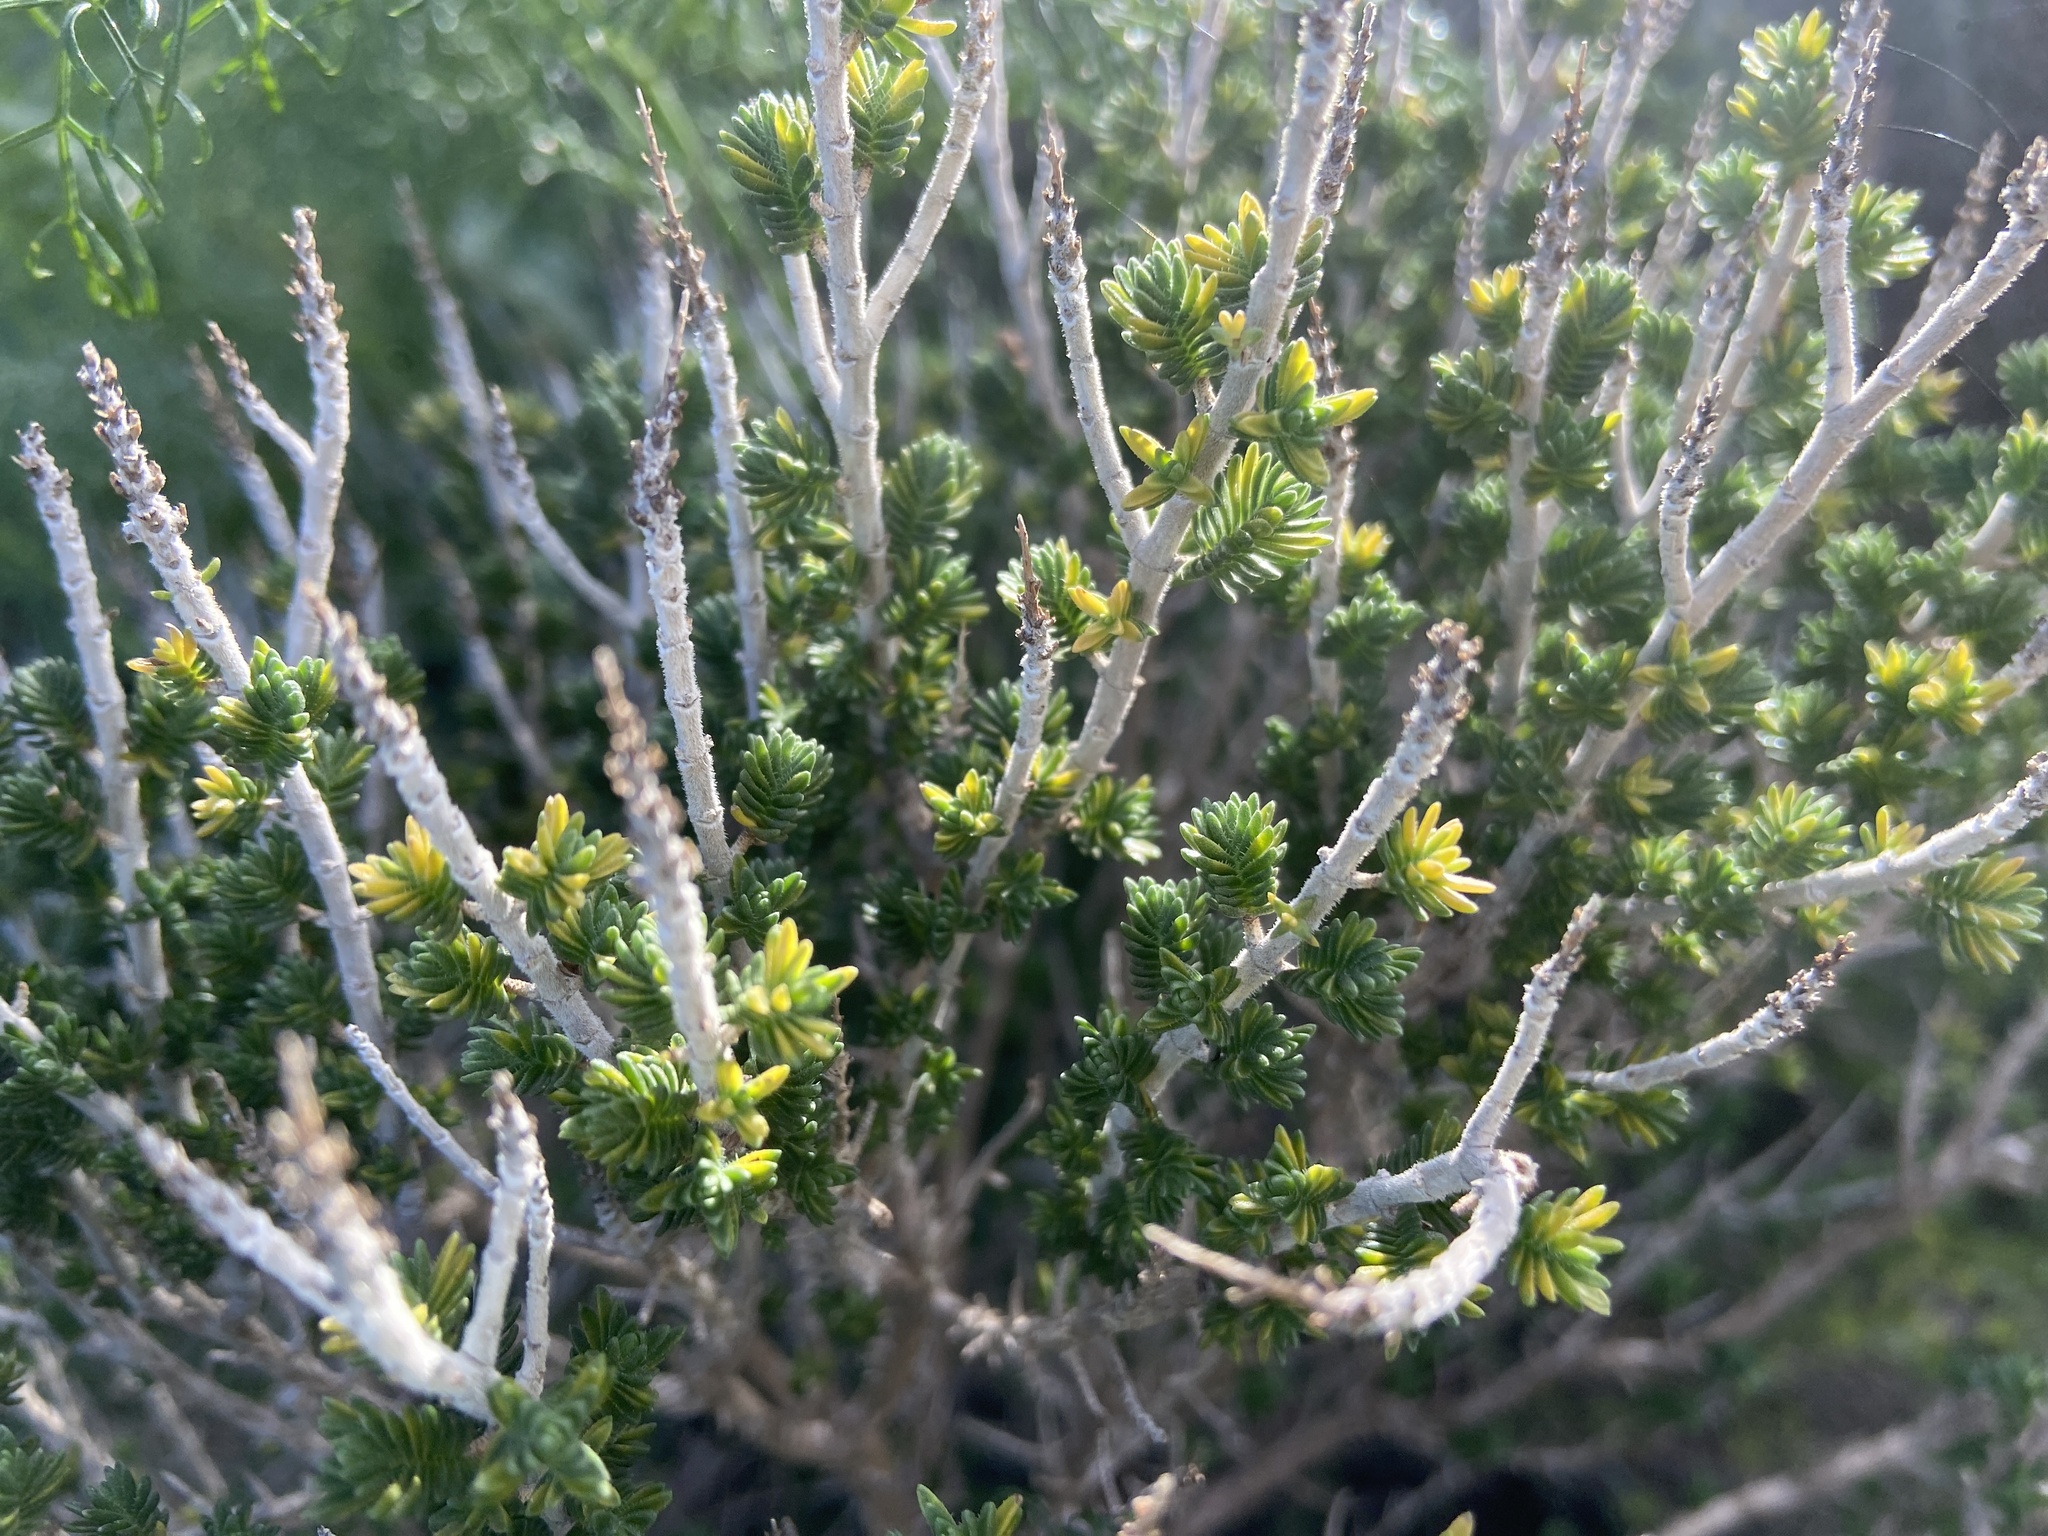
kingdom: Plantae
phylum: Tracheophyta
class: Magnoliopsida
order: Lamiales
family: Lamiaceae
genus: Thymbra
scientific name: Thymbra capitata
